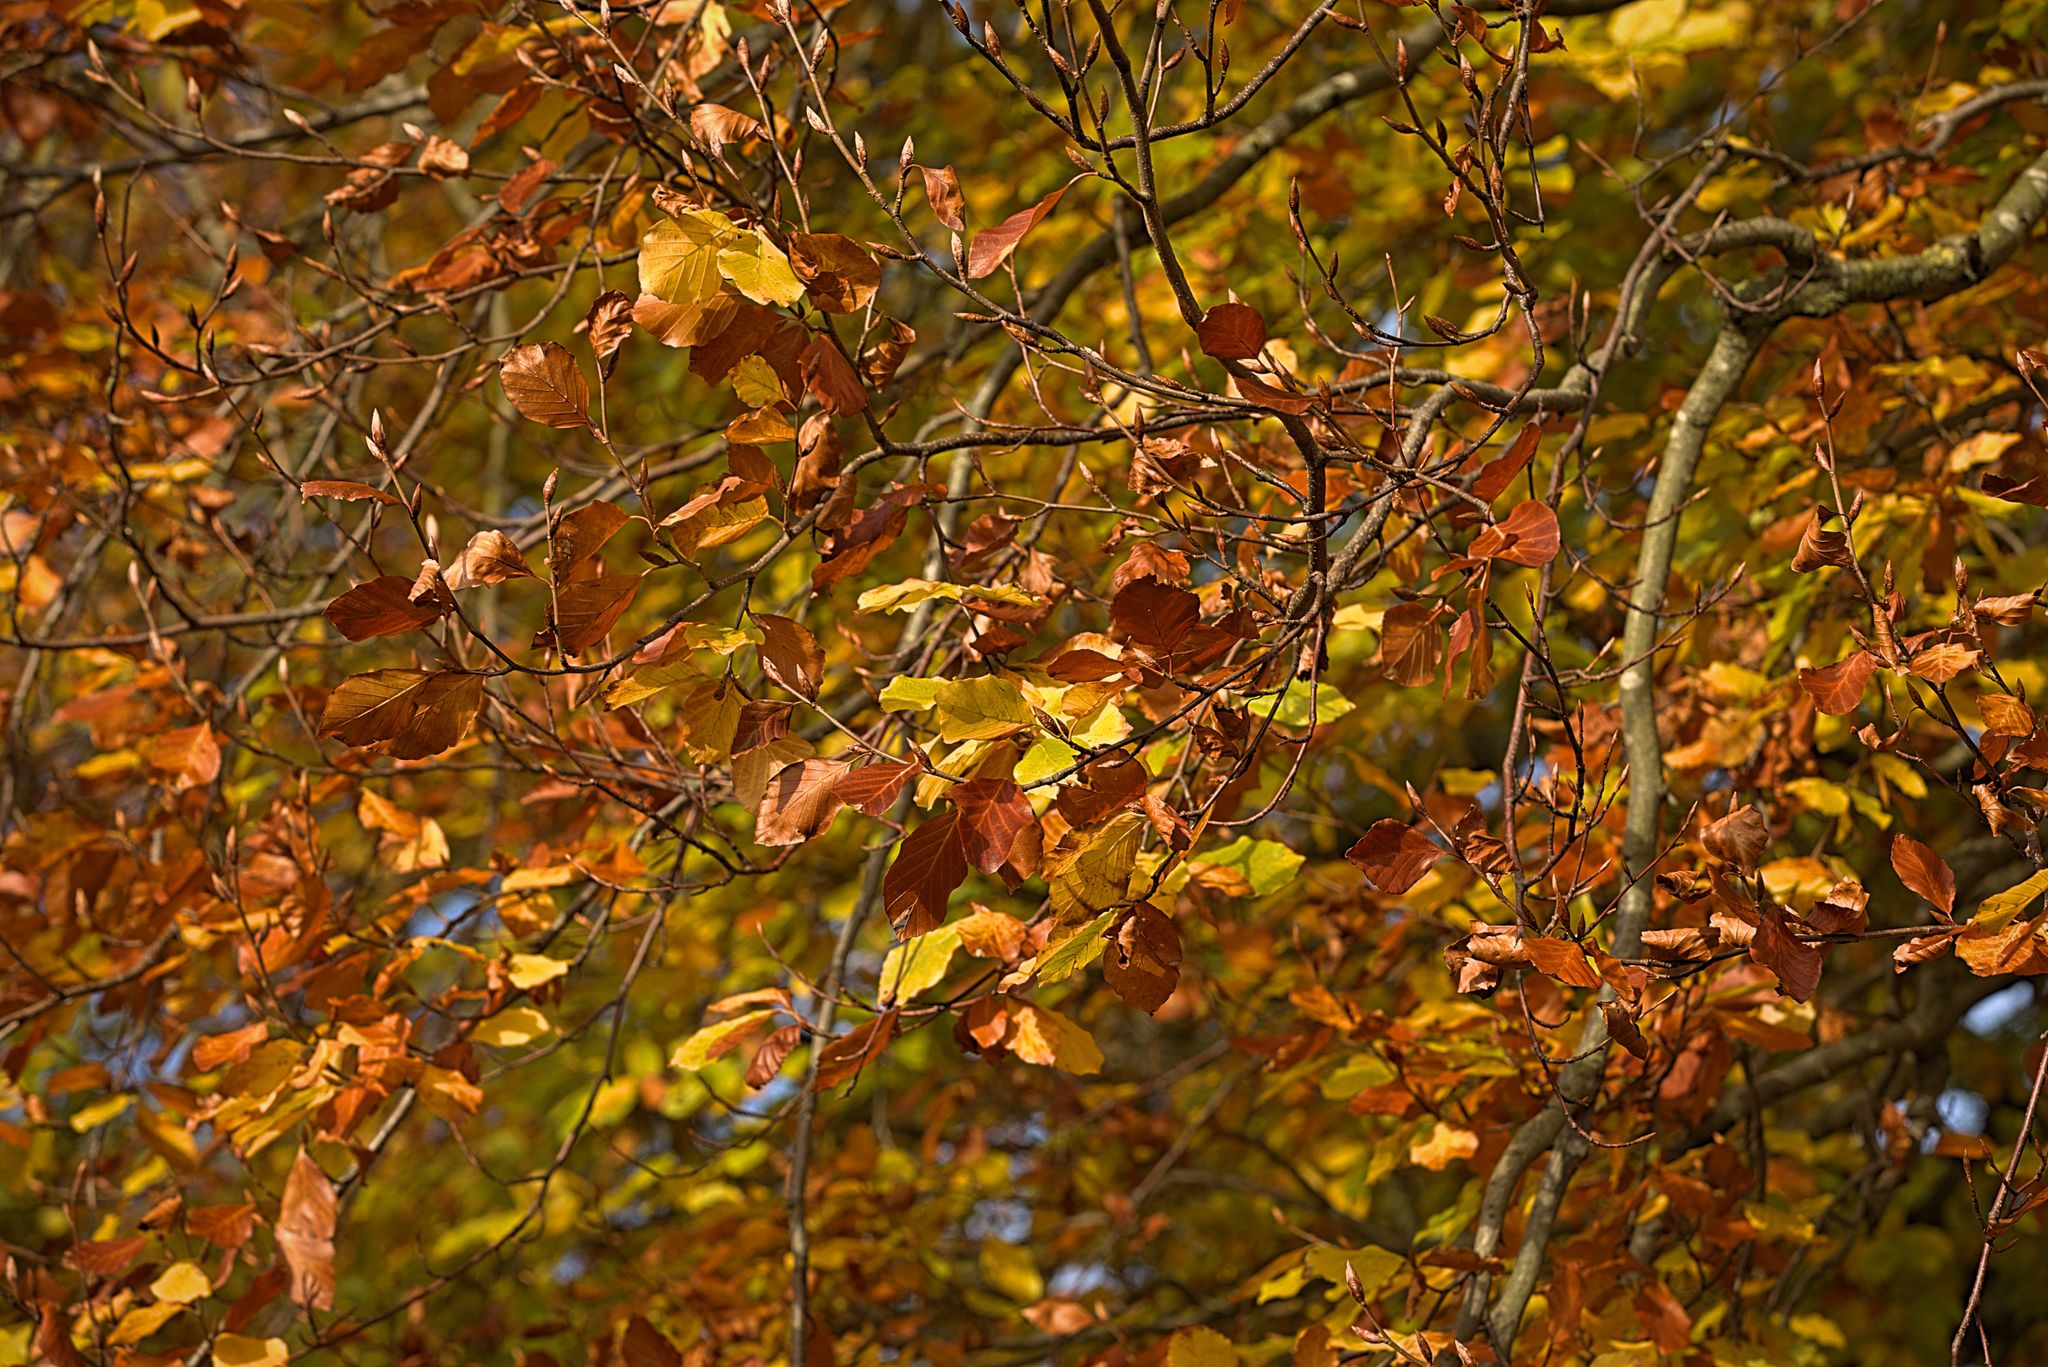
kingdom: Plantae
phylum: Tracheophyta
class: Magnoliopsida
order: Fagales
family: Fagaceae
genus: Fagus
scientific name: Fagus sylvatica
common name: Beech
